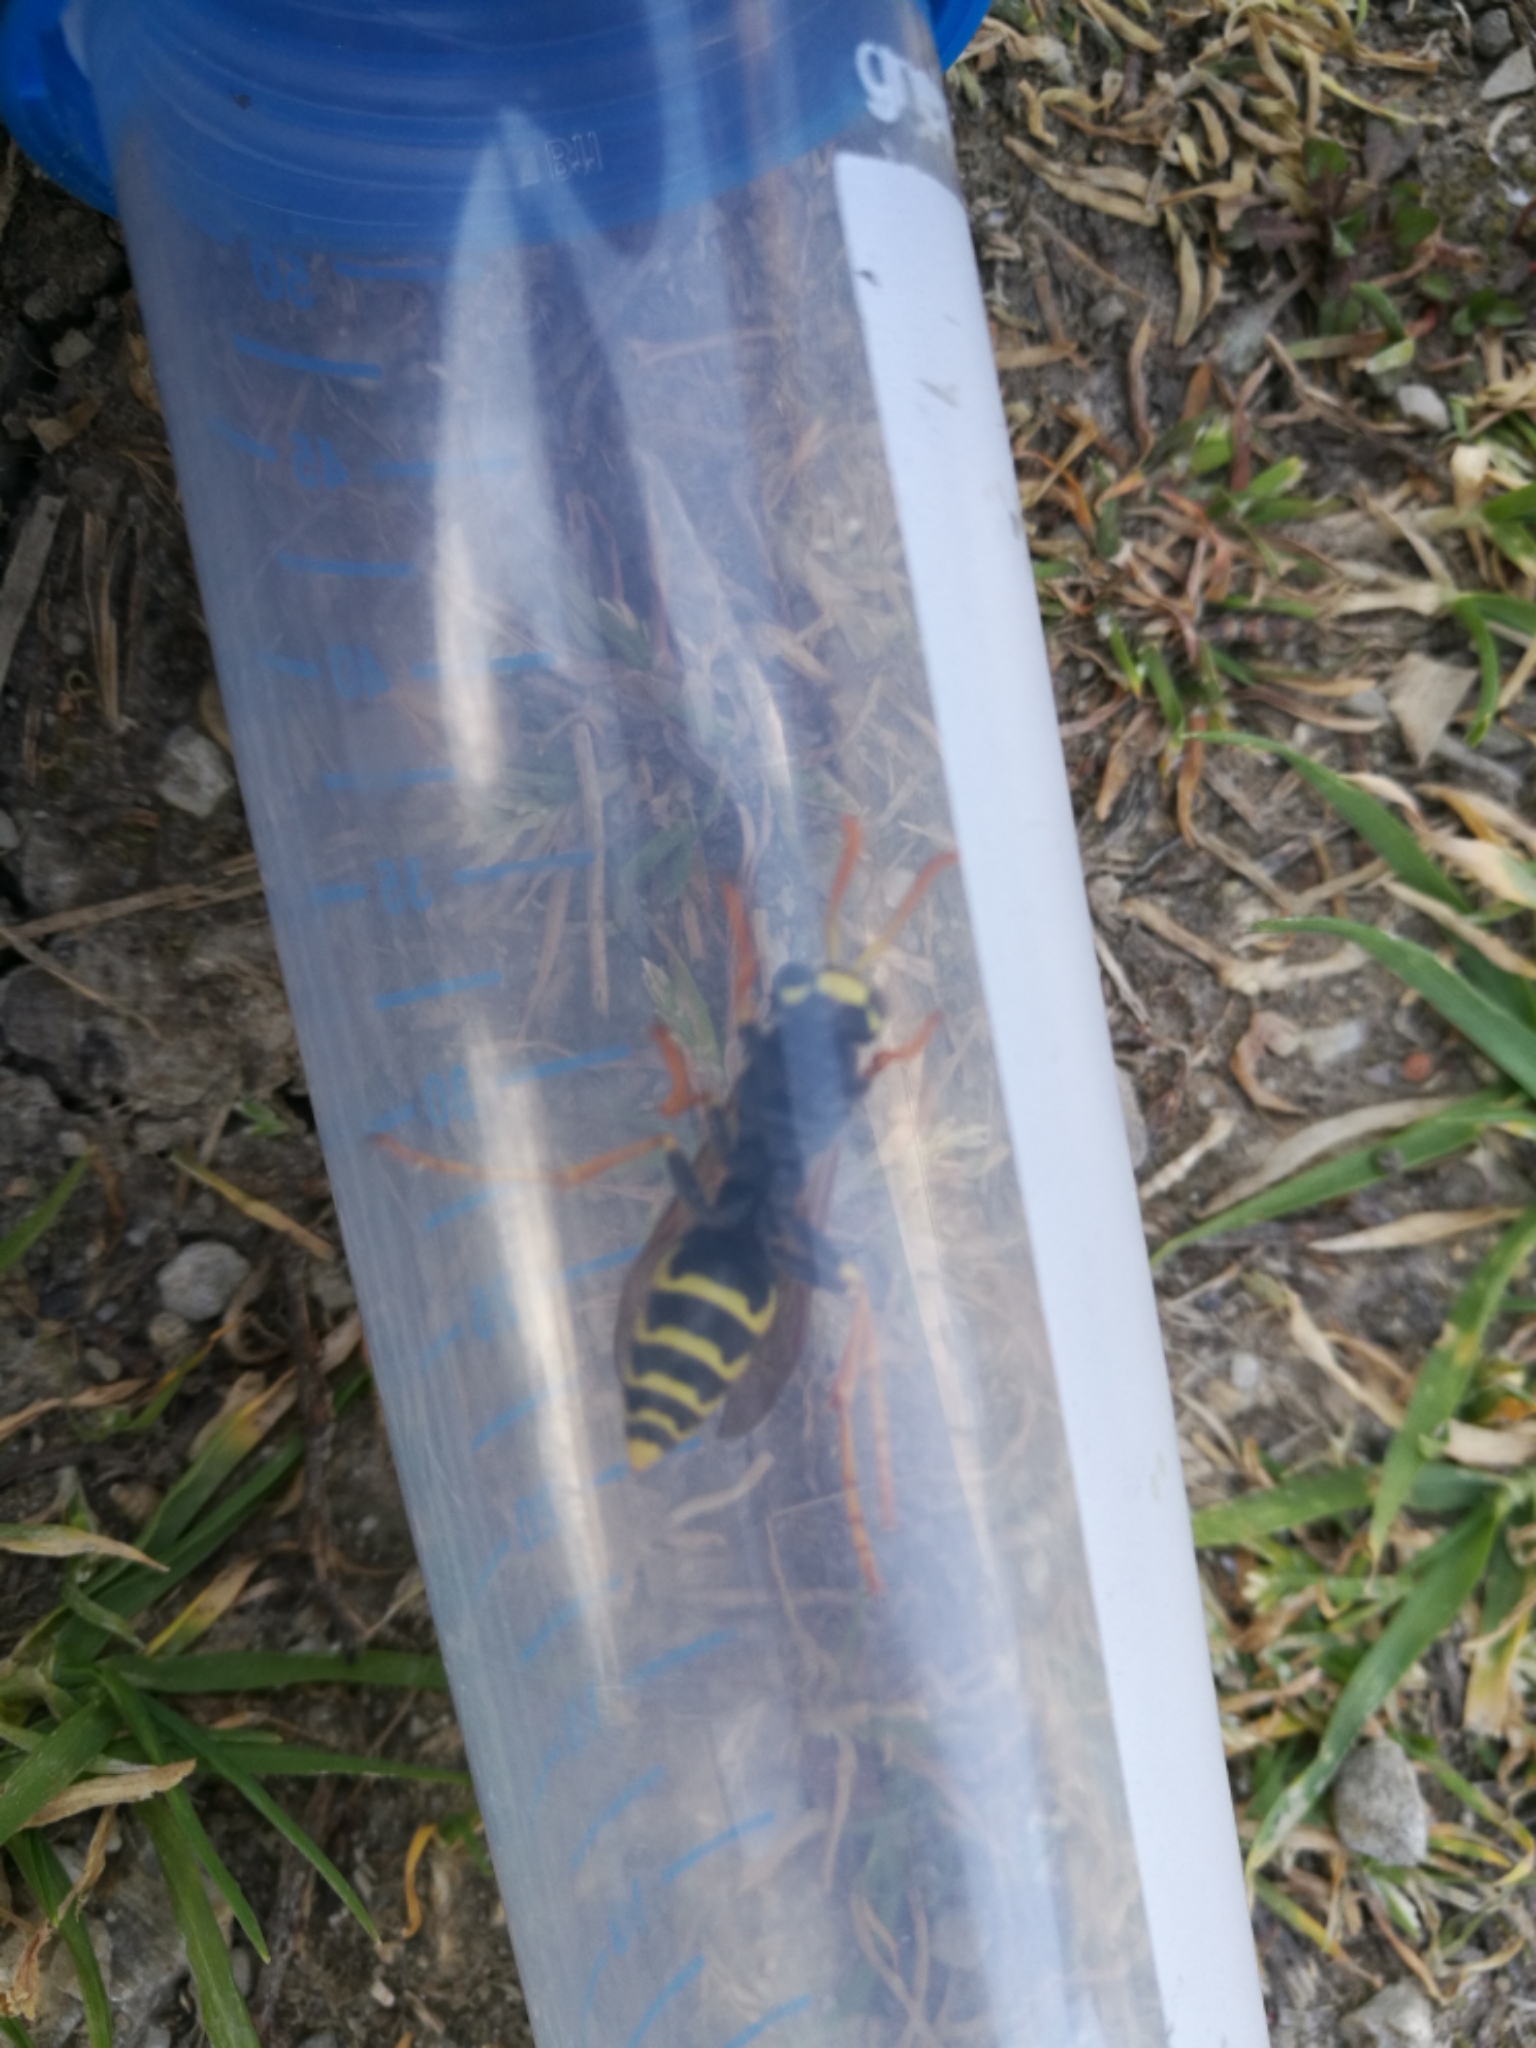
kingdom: Animalia
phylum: Arthropoda
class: Insecta
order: Hymenoptera
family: Eumenidae
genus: Polistes
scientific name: Polistes dominula
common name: Paper wasp
